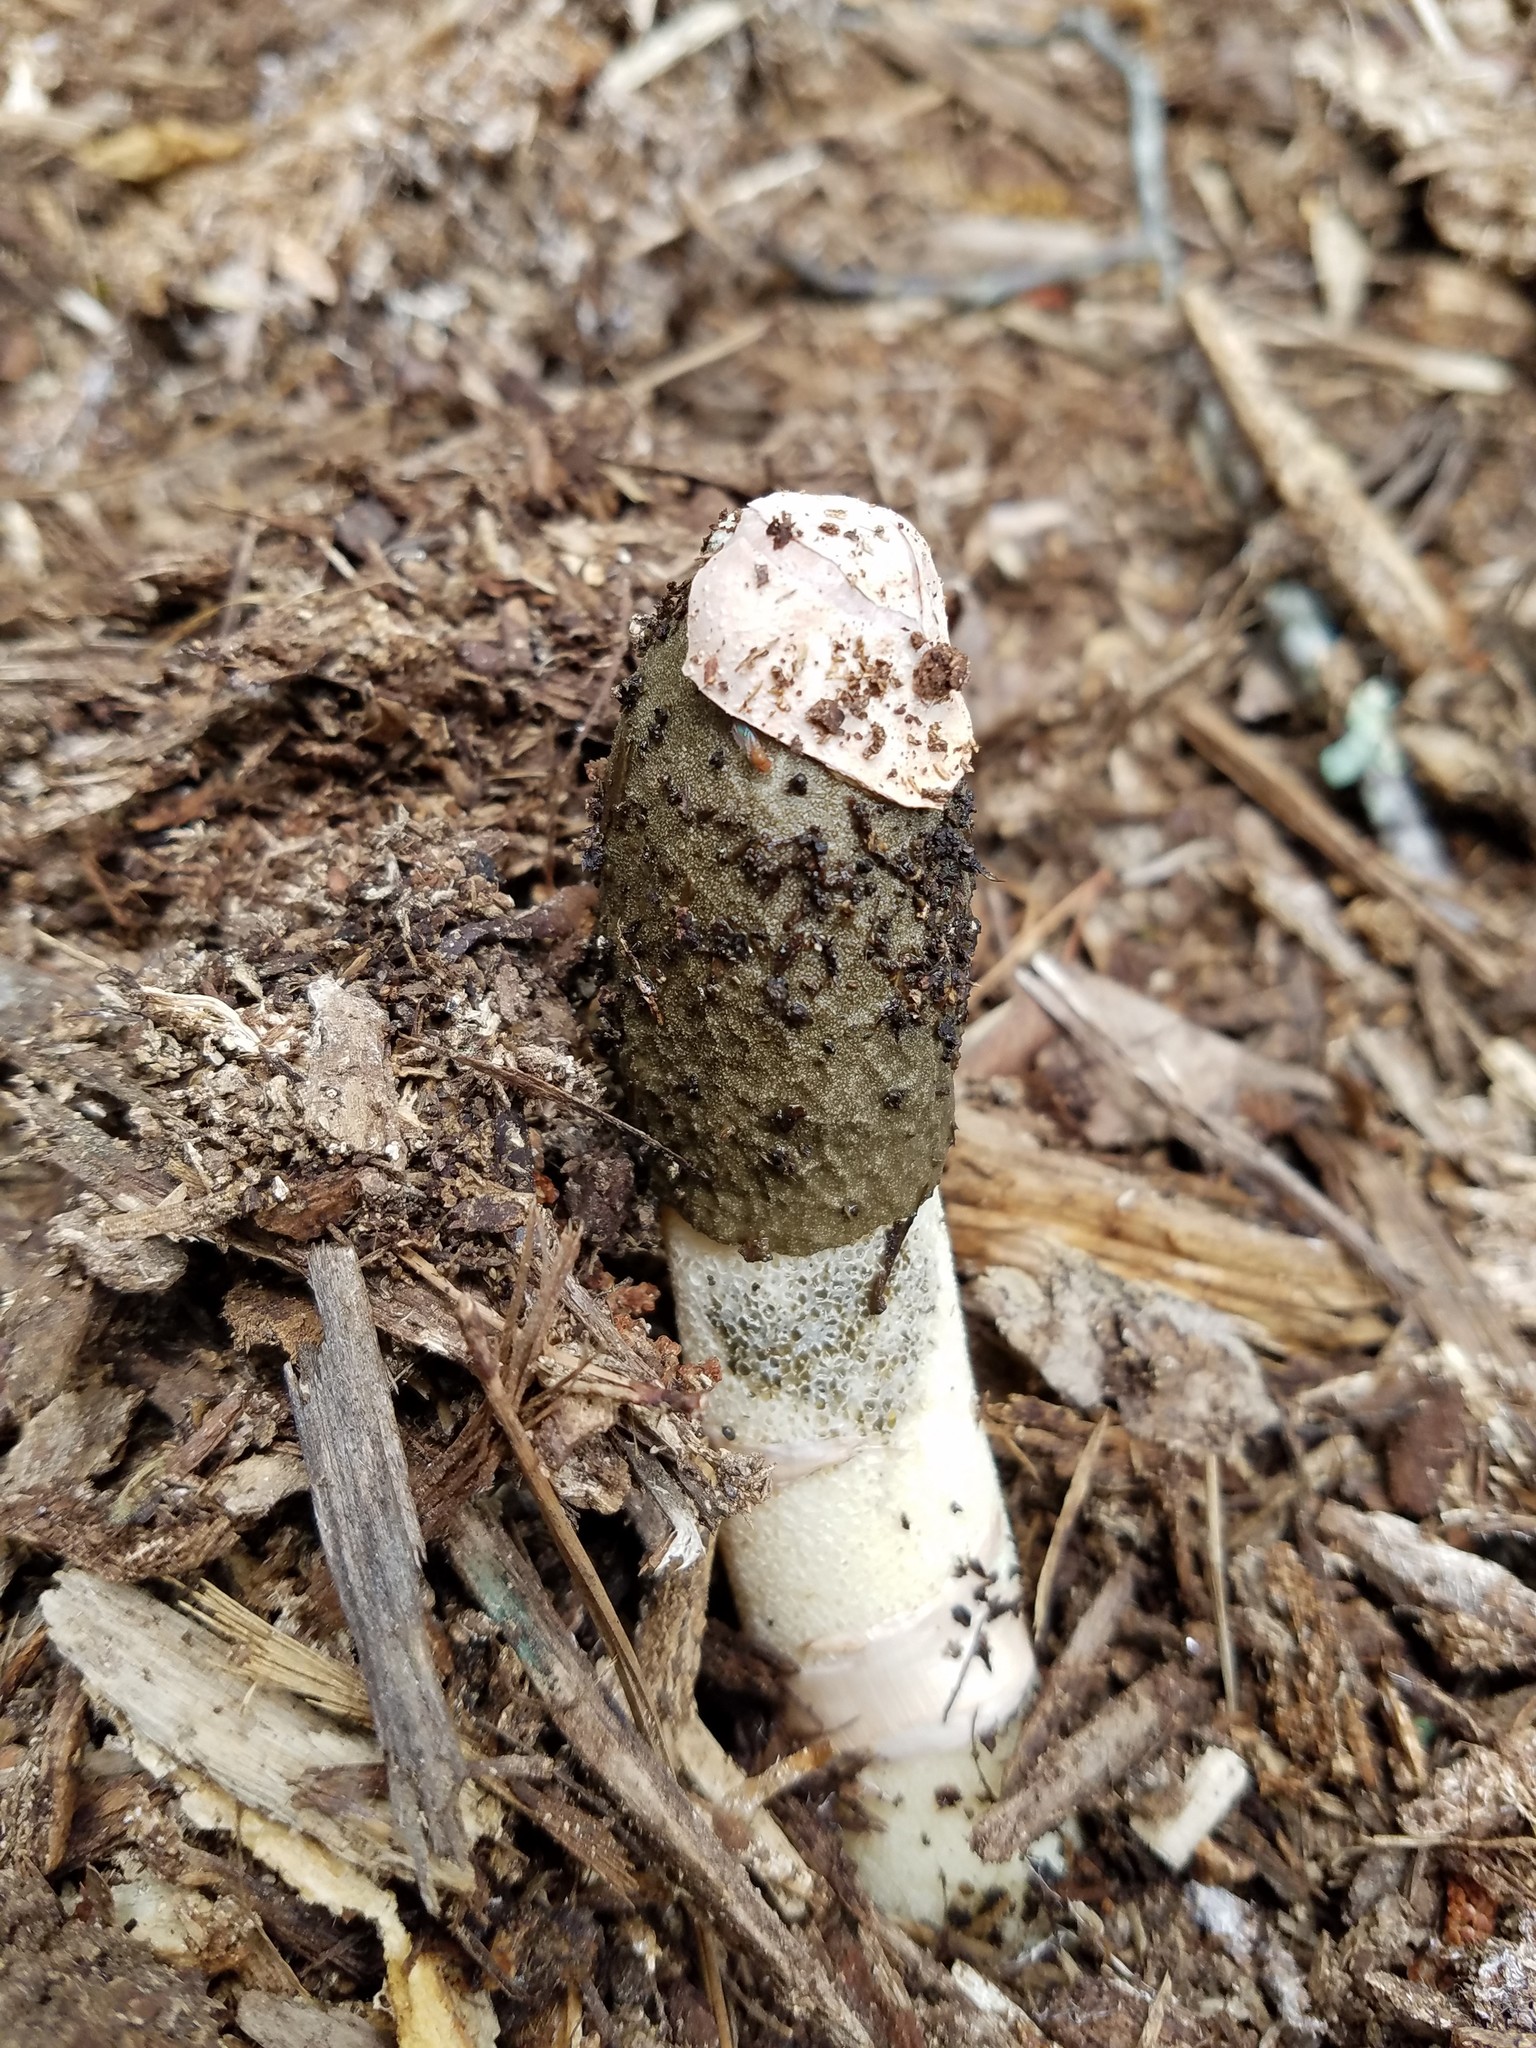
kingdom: Fungi
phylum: Basidiomycota
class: Agaricomycetes
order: Phallales
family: Phallaceae
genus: Phallus
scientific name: Phallus ravenelii
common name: Ravenel's stinkhorn
